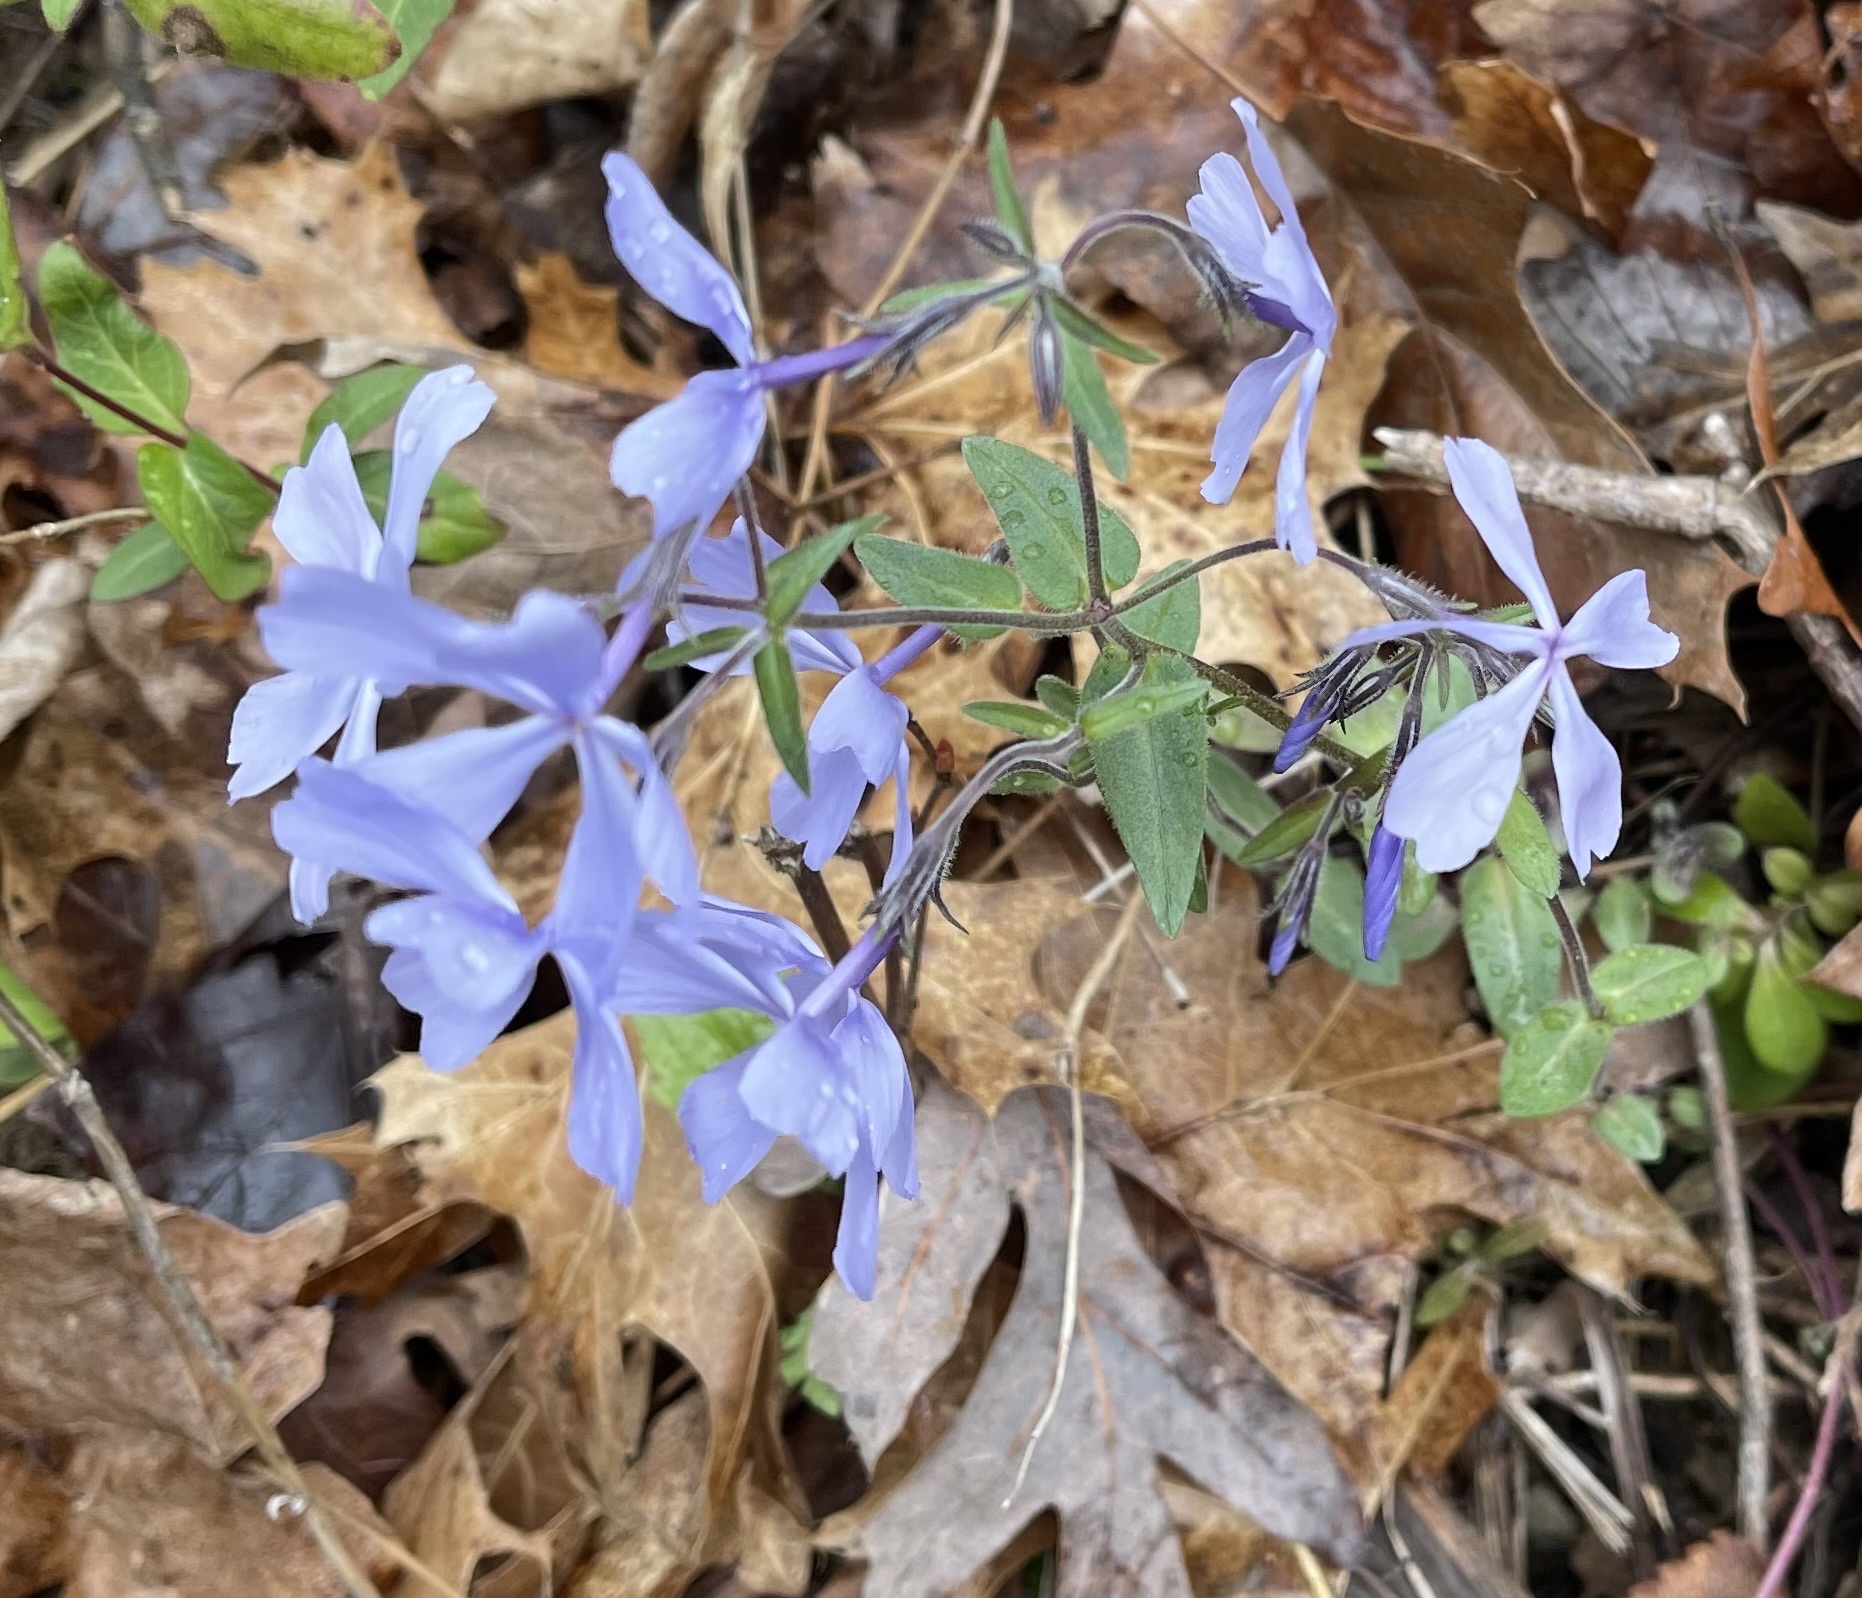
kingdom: Plantae
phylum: Tracheophyta
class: Magnoliopsida
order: Ericales
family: Polemoniaceae
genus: Phlox
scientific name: Phlox divaricata
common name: Blue phlox
